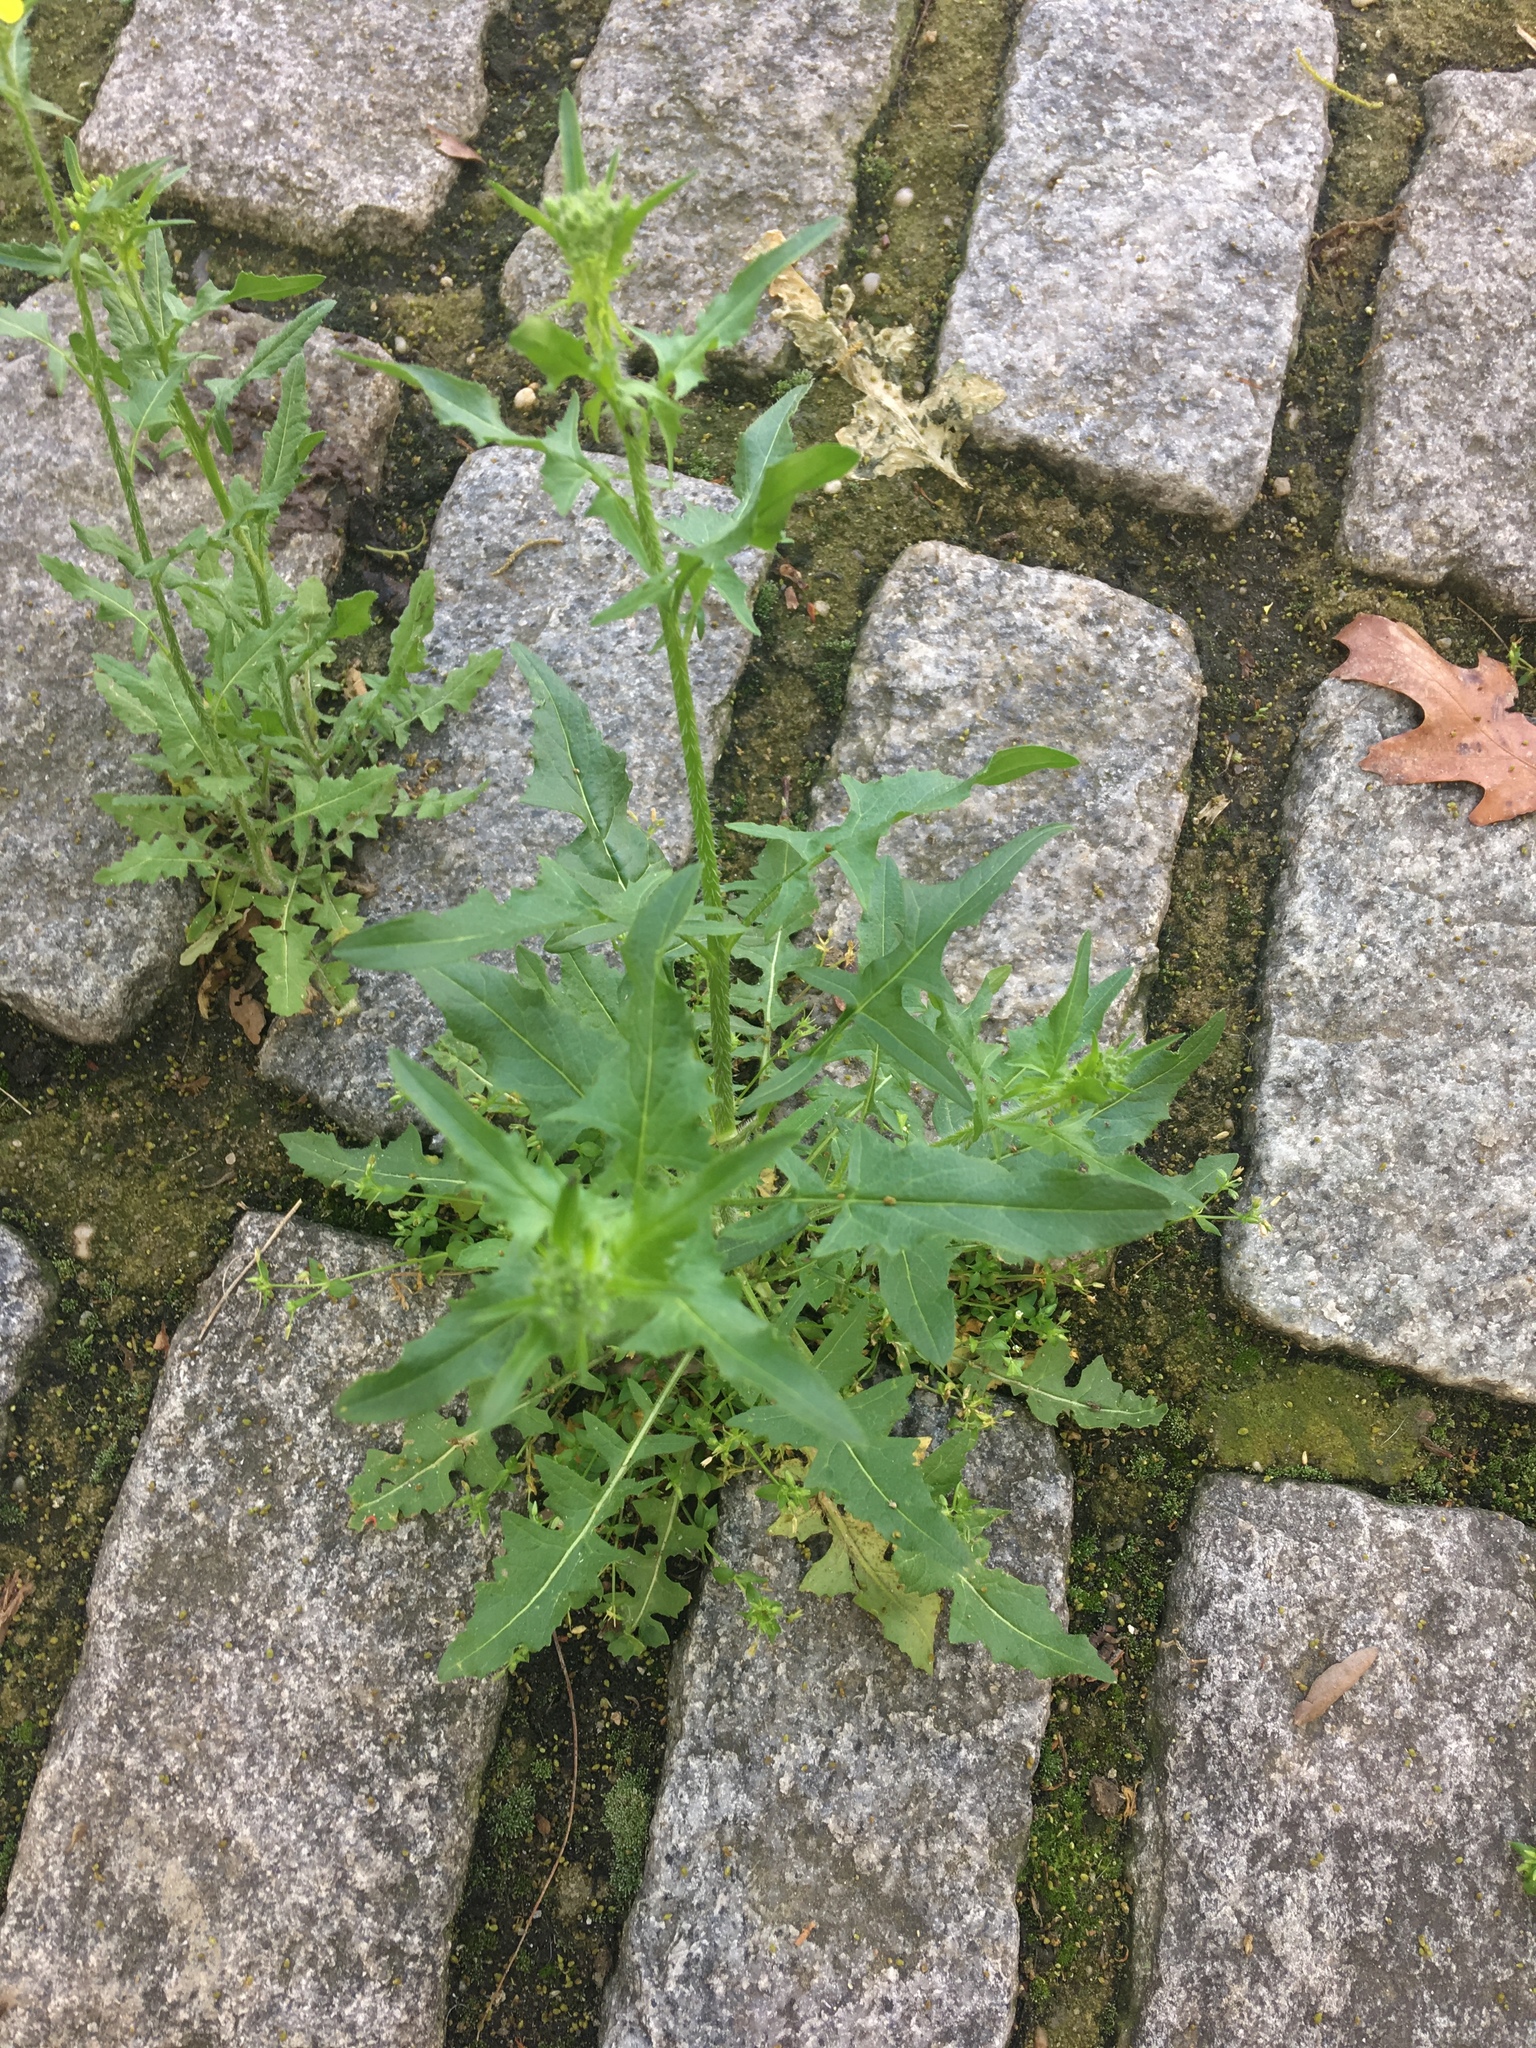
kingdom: Plantae
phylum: Tracheophyta
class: Magnoliopsida
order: Brassicales
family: Brassicaceae
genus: Sisymbrium
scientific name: Sisymbrium loeselii
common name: False london-rocket
